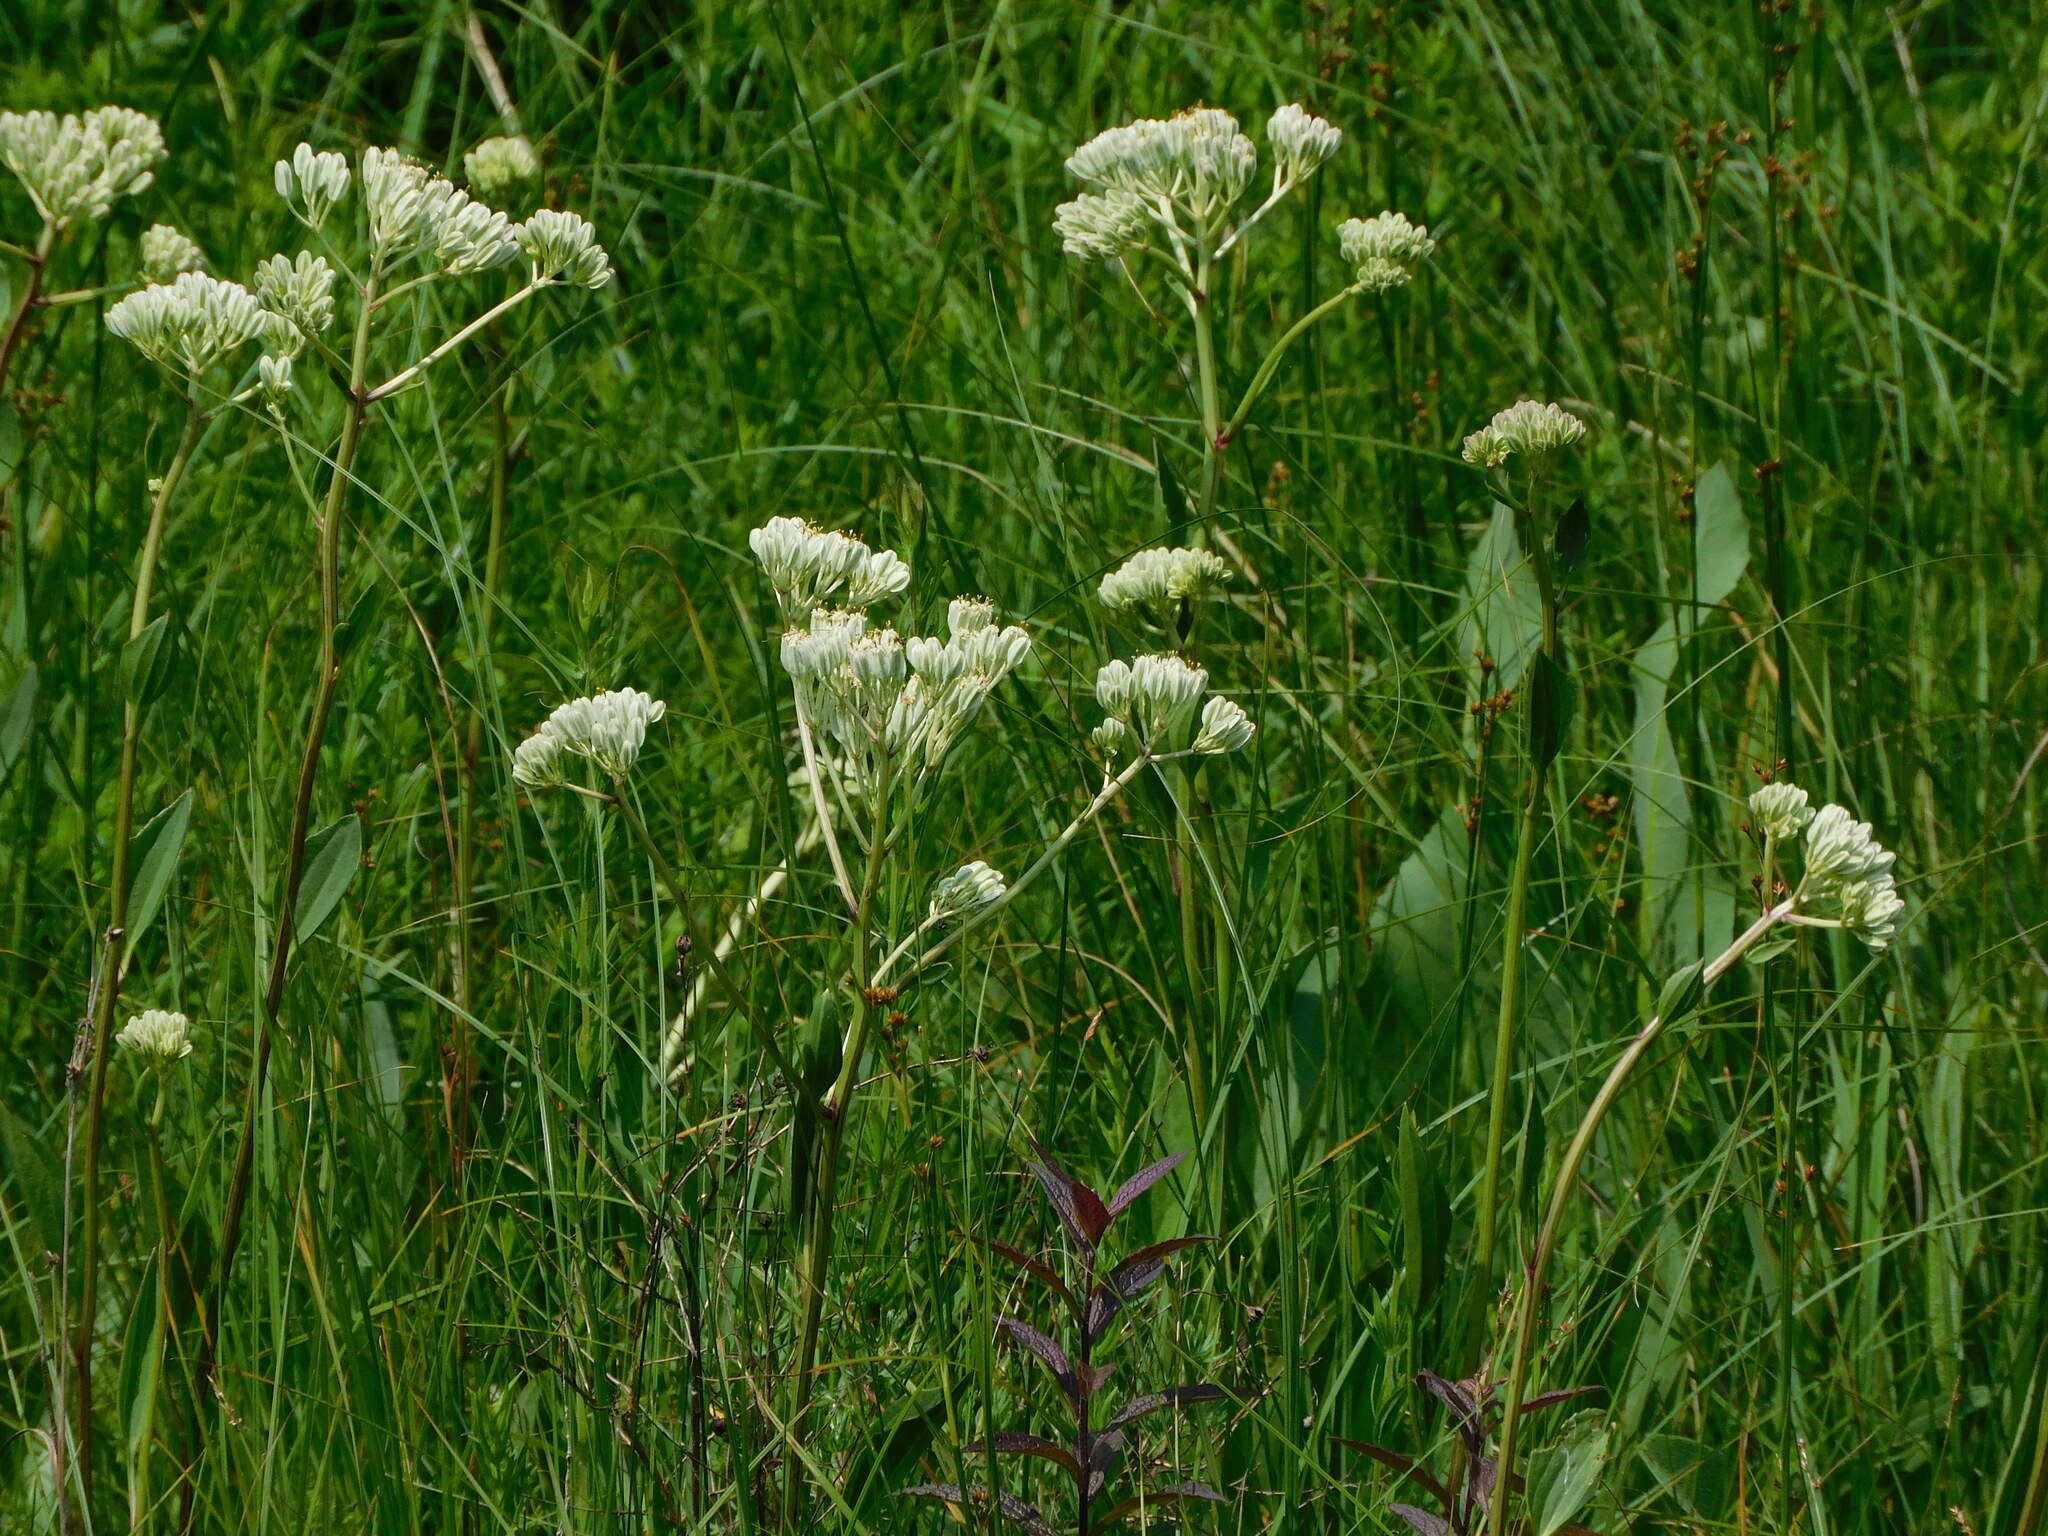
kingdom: Plantae
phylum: Tracheophyta
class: Magnoliopsida
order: Asterales
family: Asteraceae
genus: Arnoglossum
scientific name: Arnoglossum plantagineum
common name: Groove-stemmed indian-plantain
